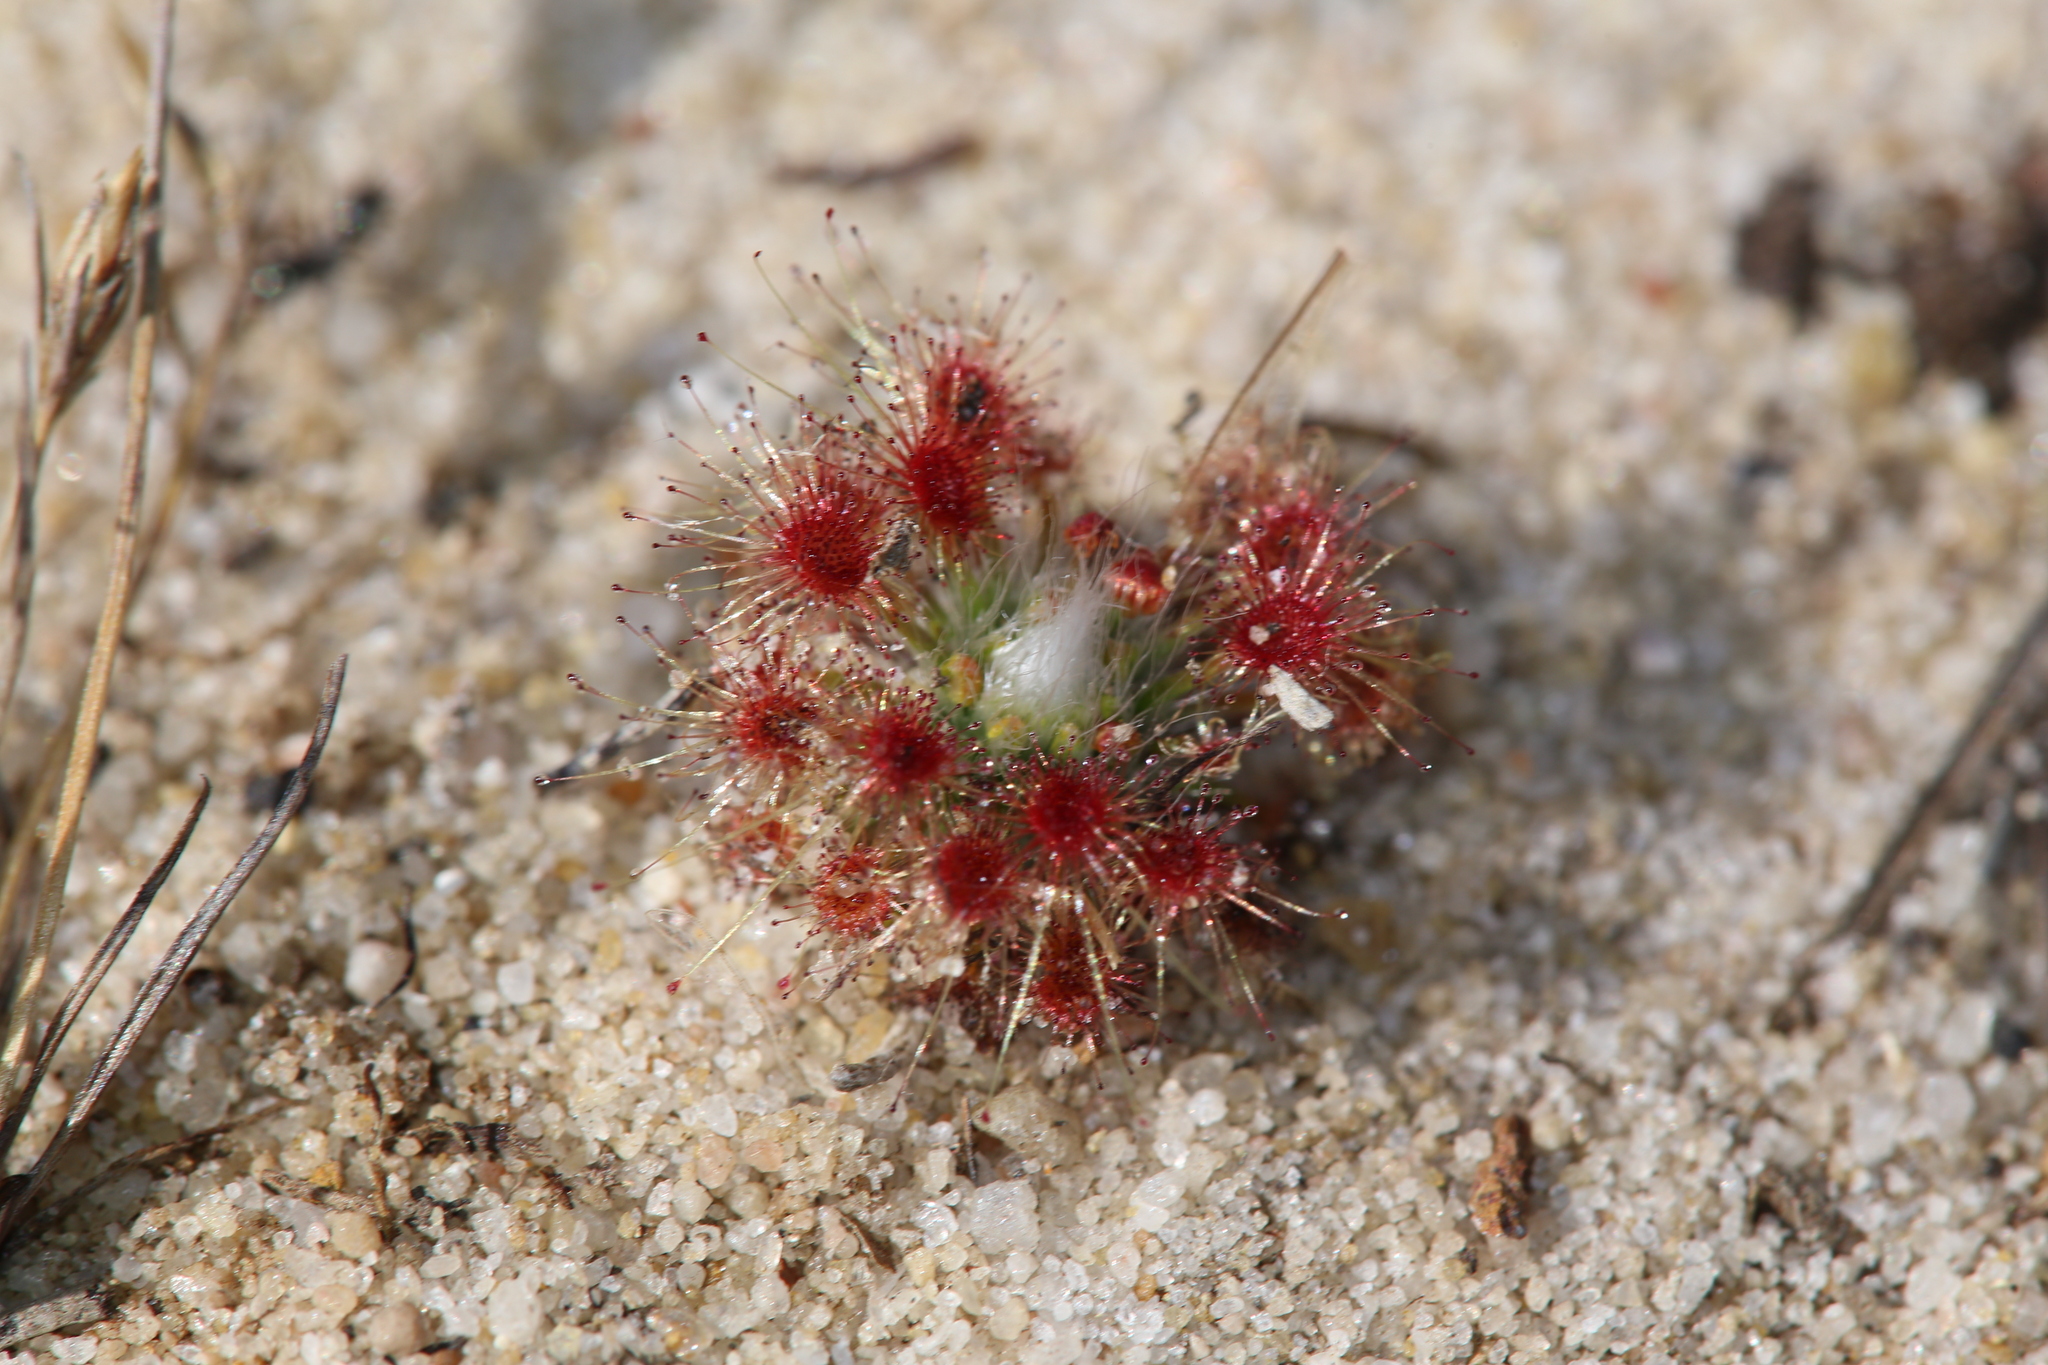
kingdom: Plantae
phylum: Tracheophyta
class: Magnoliopsida
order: Caryophyllales
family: Droseraceae
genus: Drosera
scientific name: Drosera paleacea
